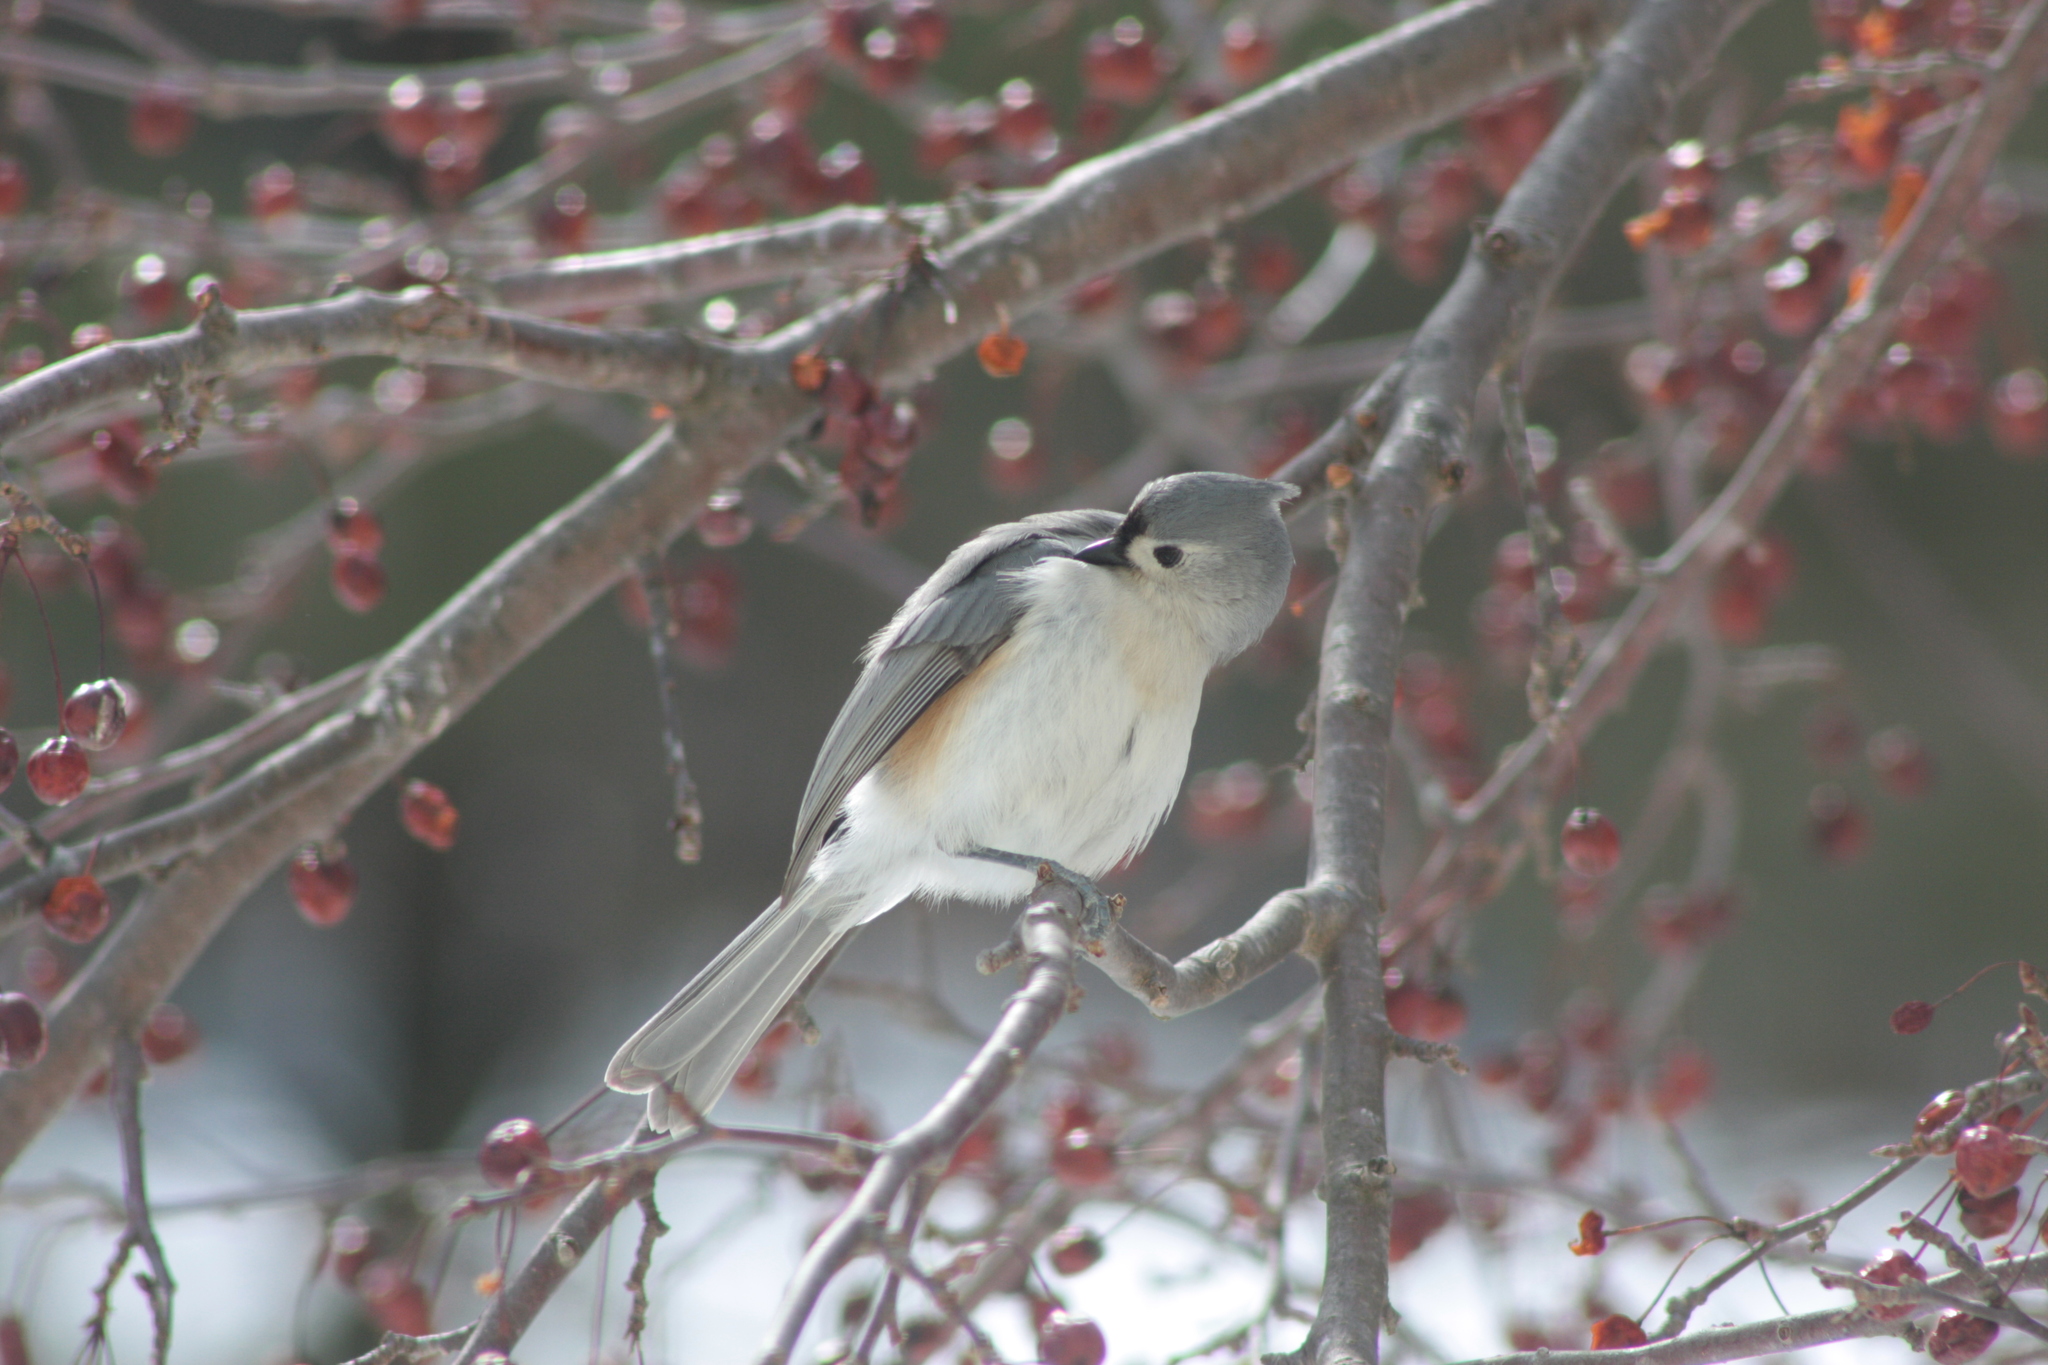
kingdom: Animalia
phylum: Chordata
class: Aves
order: Passeriformes
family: Paridae
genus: Baeolophus
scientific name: Baeolophus bicolor
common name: Tufted titmouse
